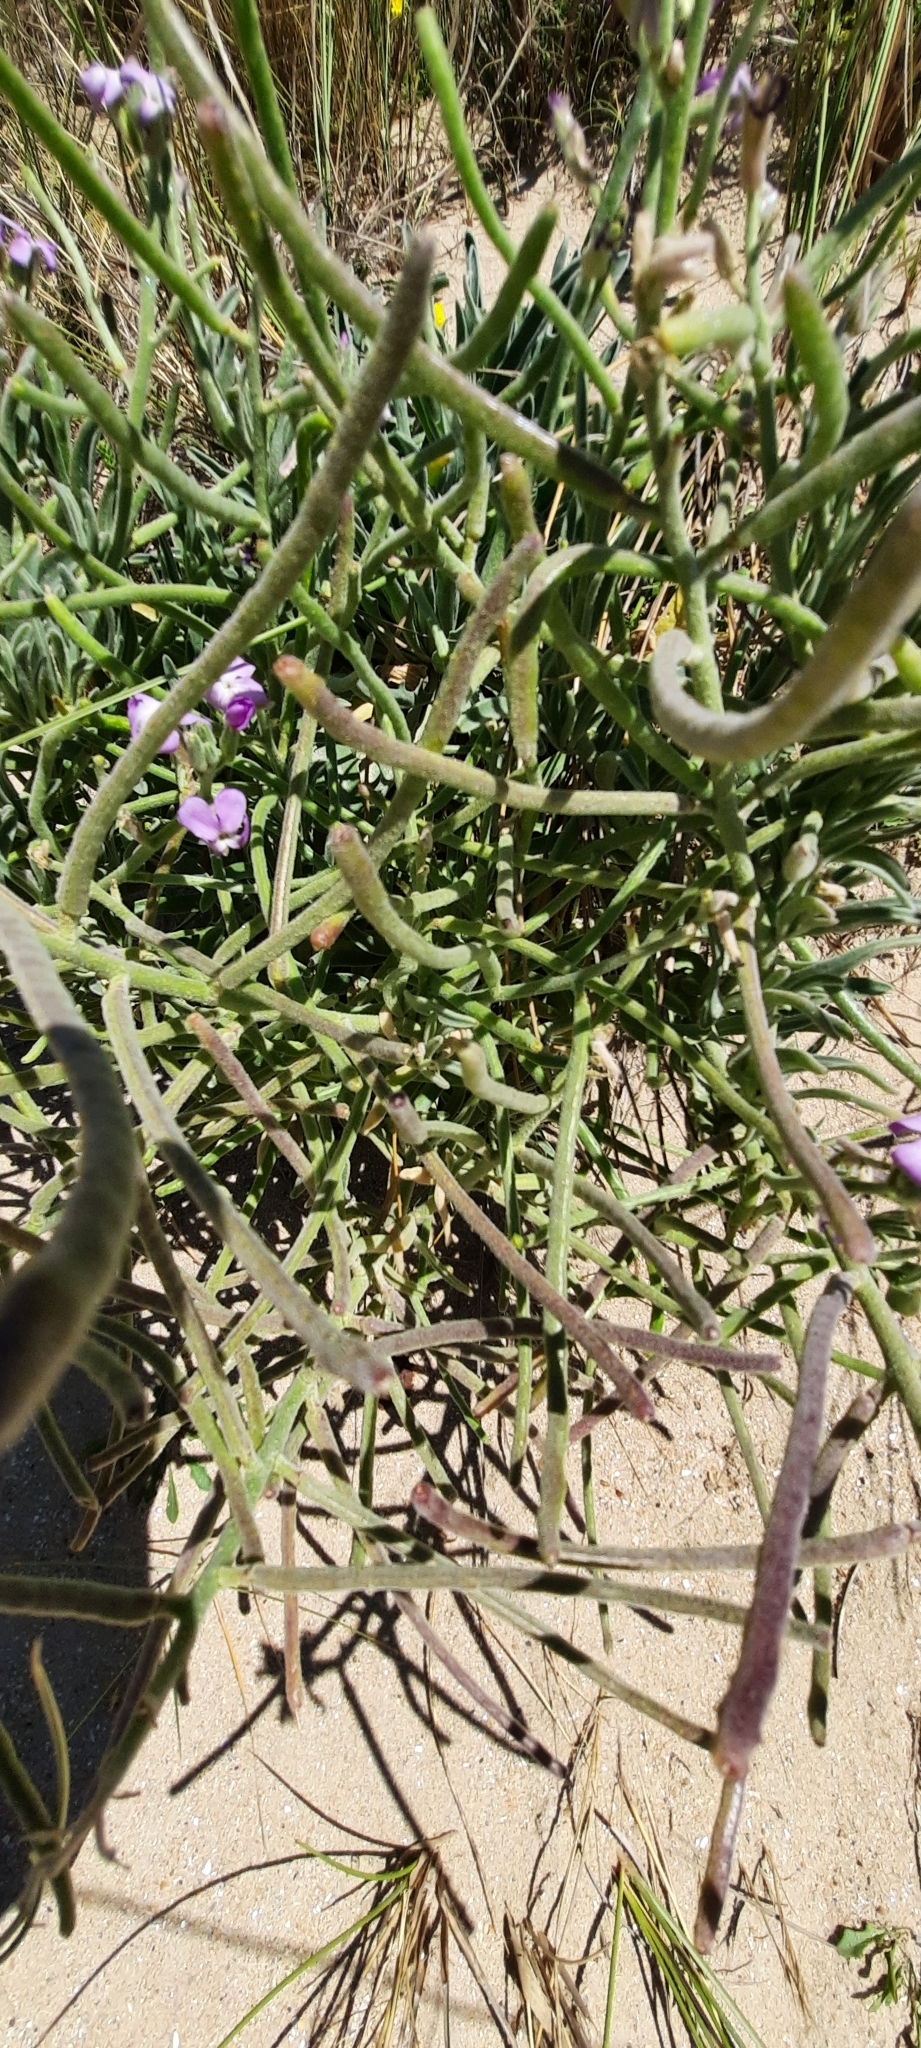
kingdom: Plantae
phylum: Tracheophyta
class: Magnoliopsida
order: Brassicales
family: Brassicaceae
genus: Matthiola
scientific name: Matthiola sinuata
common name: Sea stock
